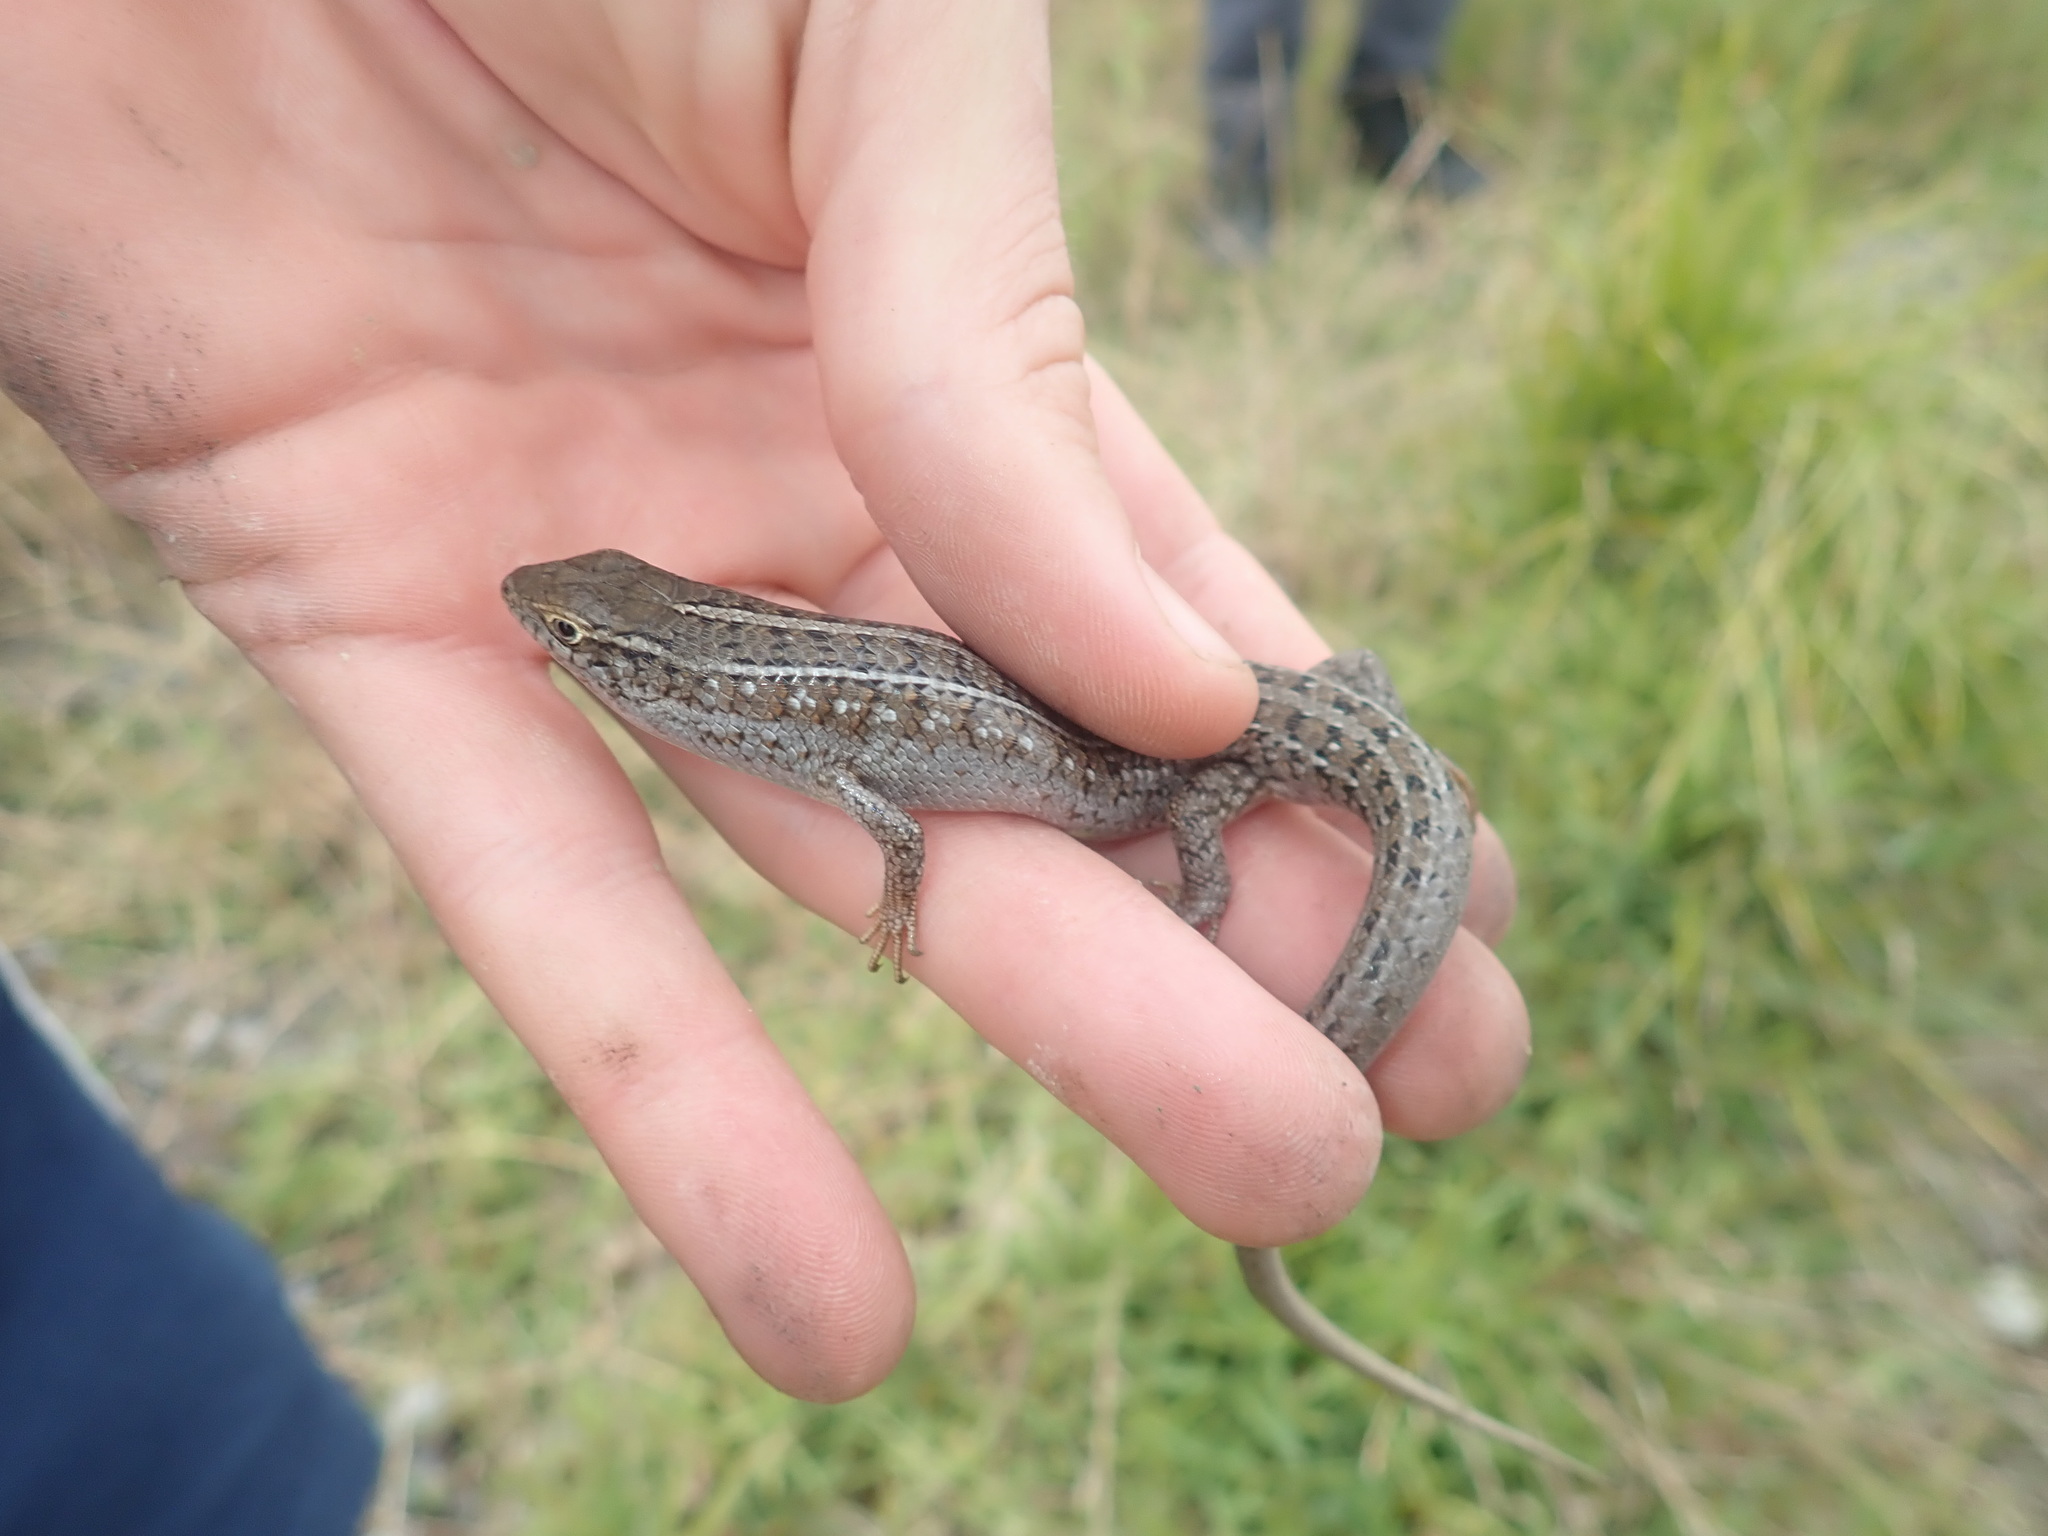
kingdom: Animalia
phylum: Chordata
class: Squamata
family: Scincidae
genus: Trachylepis
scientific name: Trachylepis capensis
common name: Cape skink
